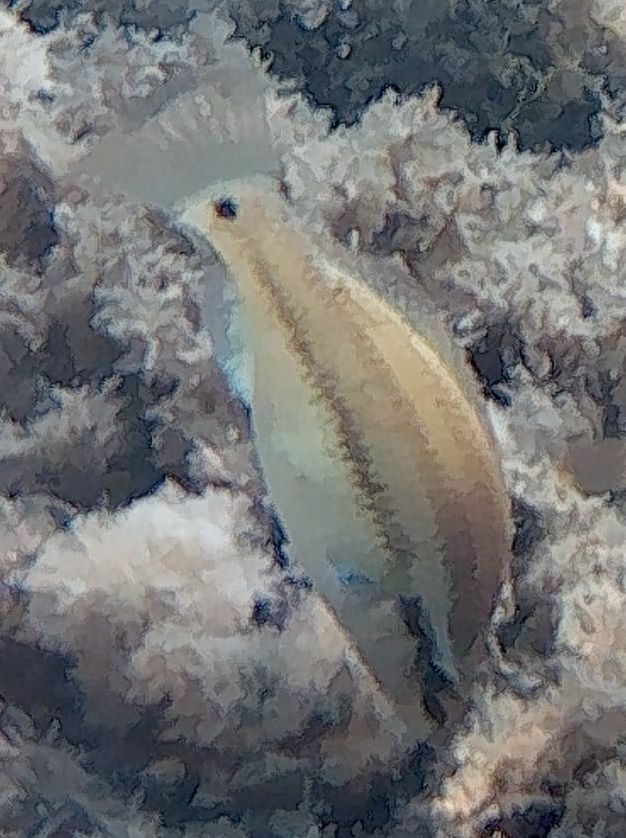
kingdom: Animalia
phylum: Chordata
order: Perciformes
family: Labridae
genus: Symphodus
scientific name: Symphodus tinca
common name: Peacock wrasse
